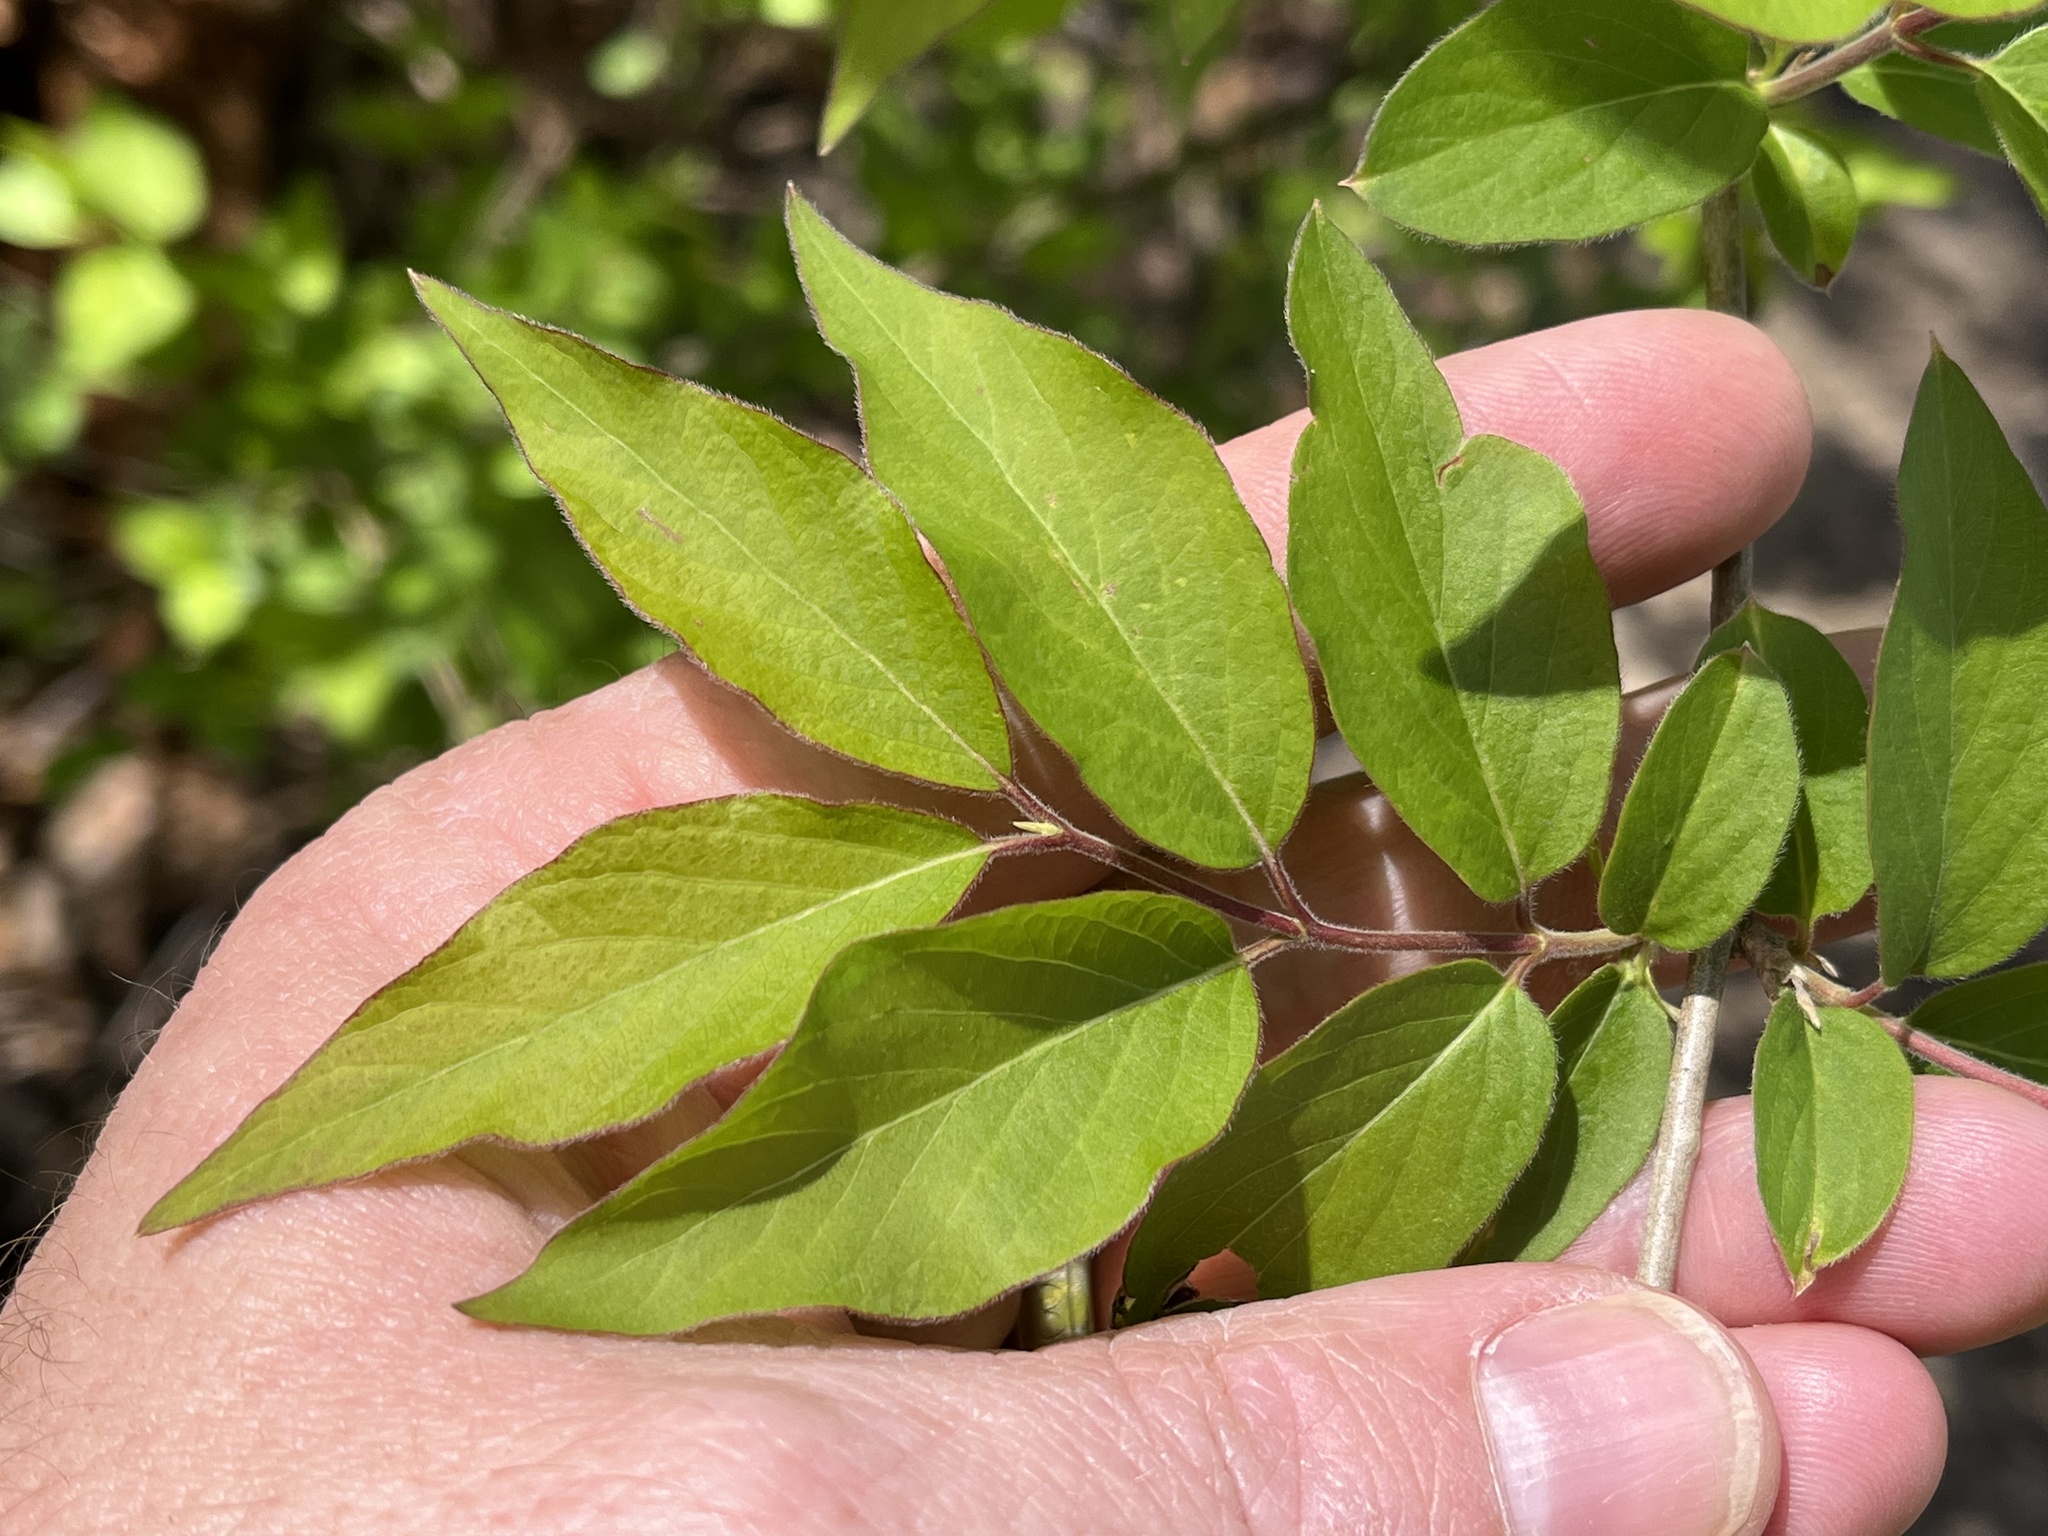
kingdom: Plantae
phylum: Tracheophyta
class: Magnoliopsida
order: Dipsacales
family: Caprifoliaceae
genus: Lonicera
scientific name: Lonicera maackii
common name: Amur honeysuckle
